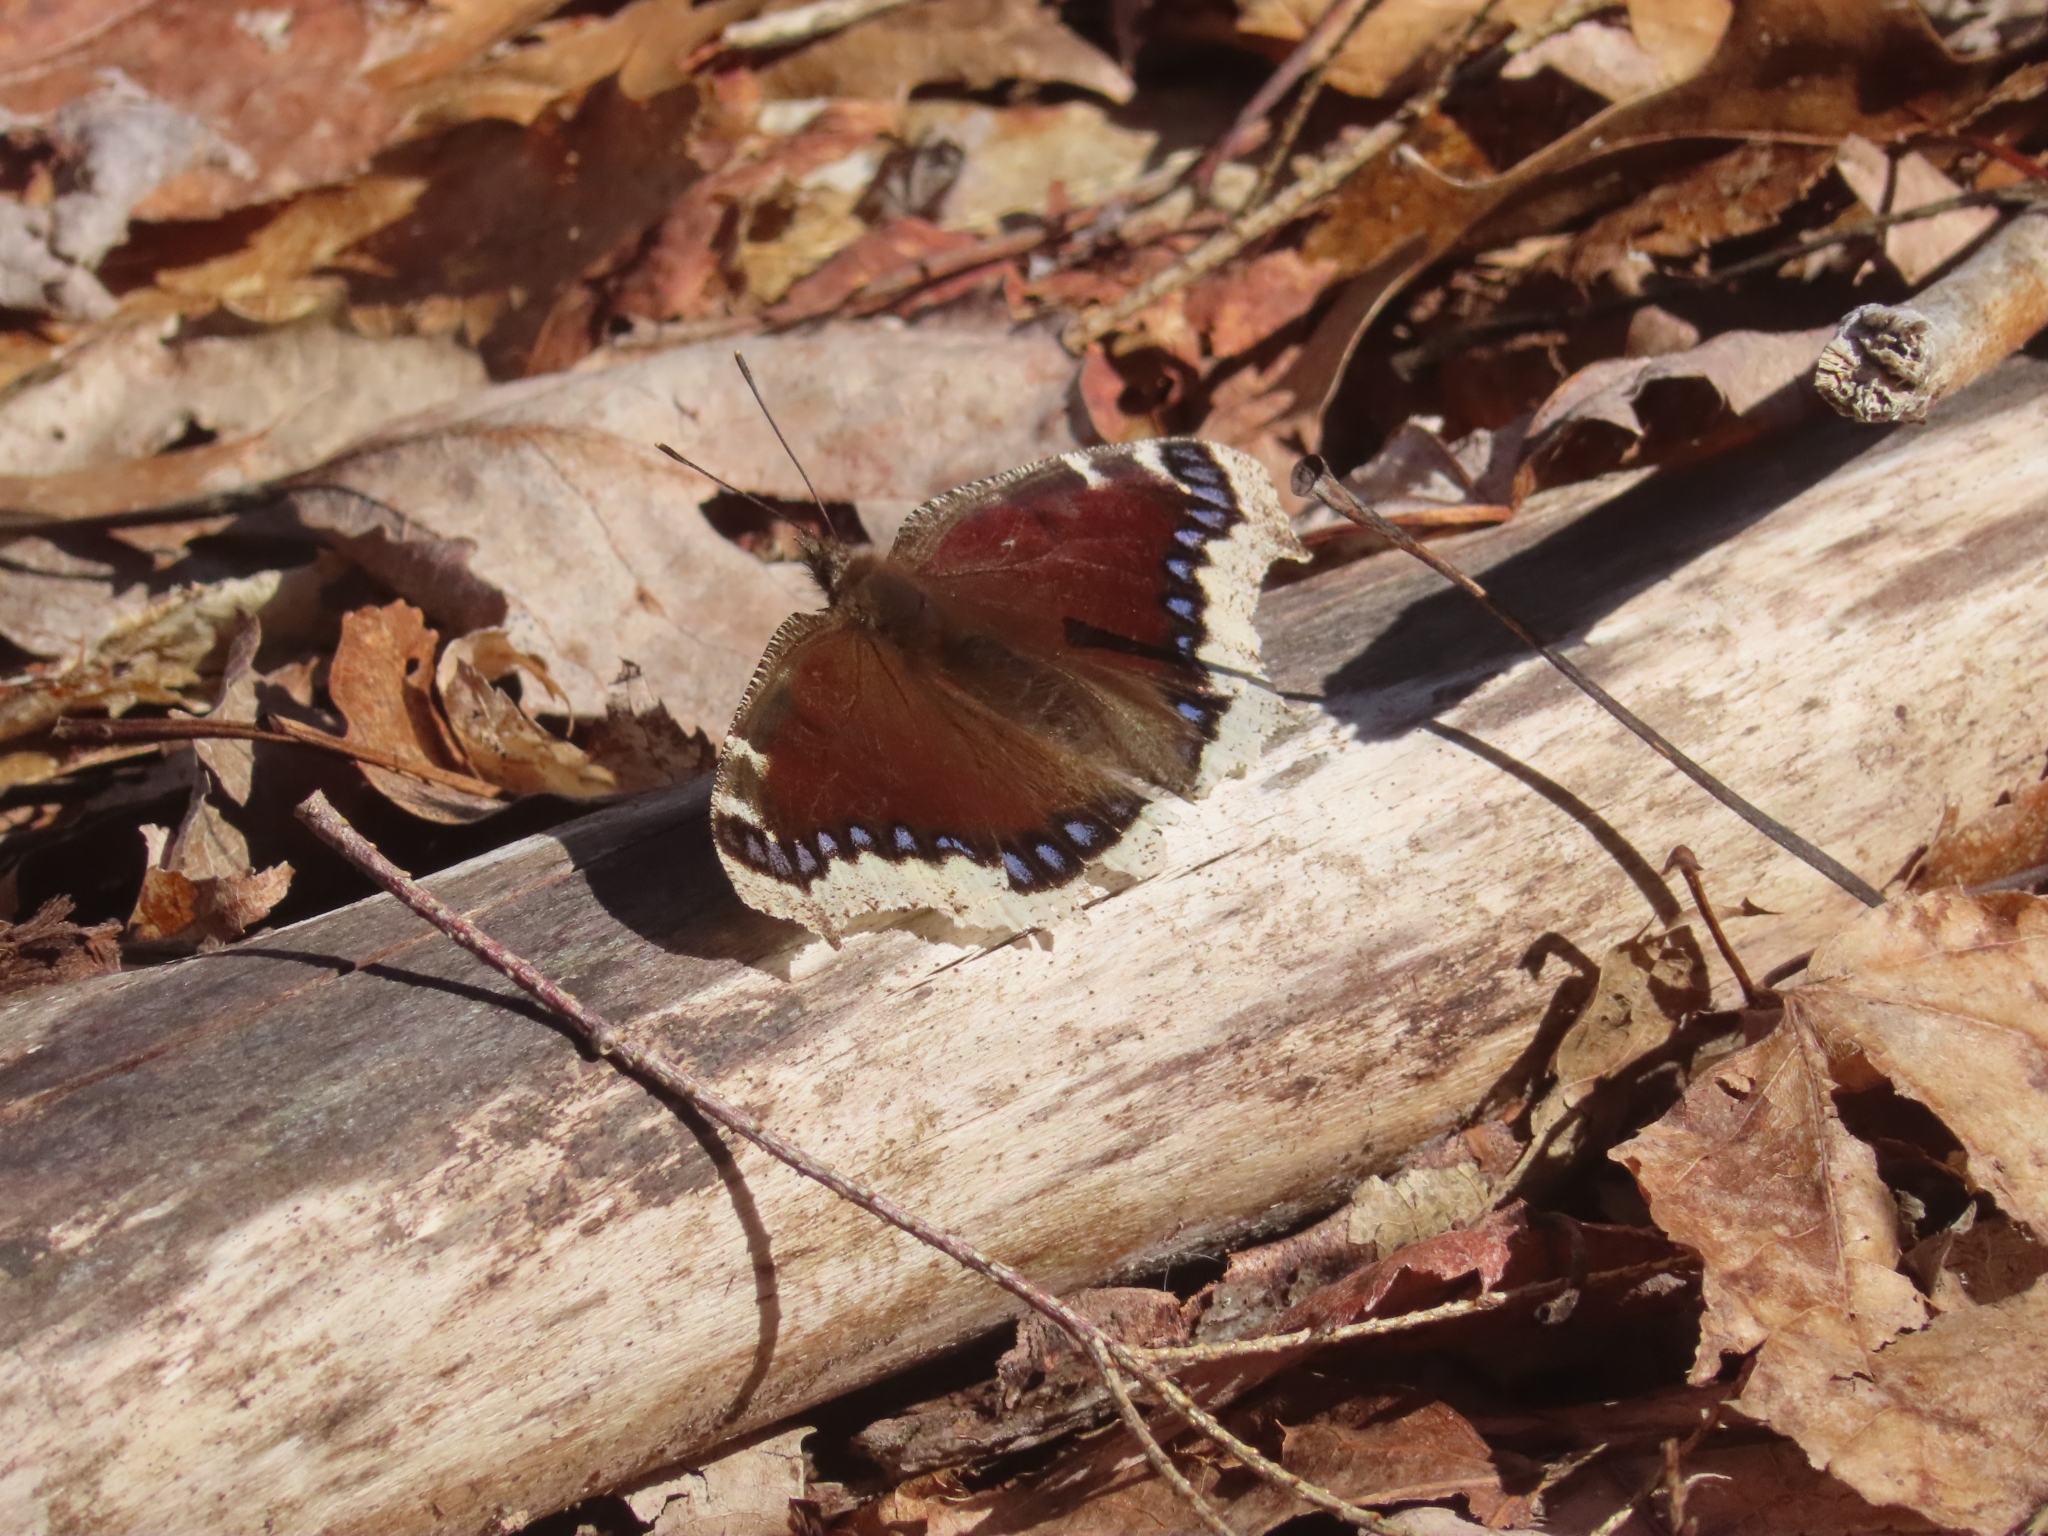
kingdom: Animalia
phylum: Arthropoda
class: Insecta
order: Lepidoptera
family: Nymphalidae
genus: Nymphalis
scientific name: Nymphalis antiopa
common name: Camberwell beauty
